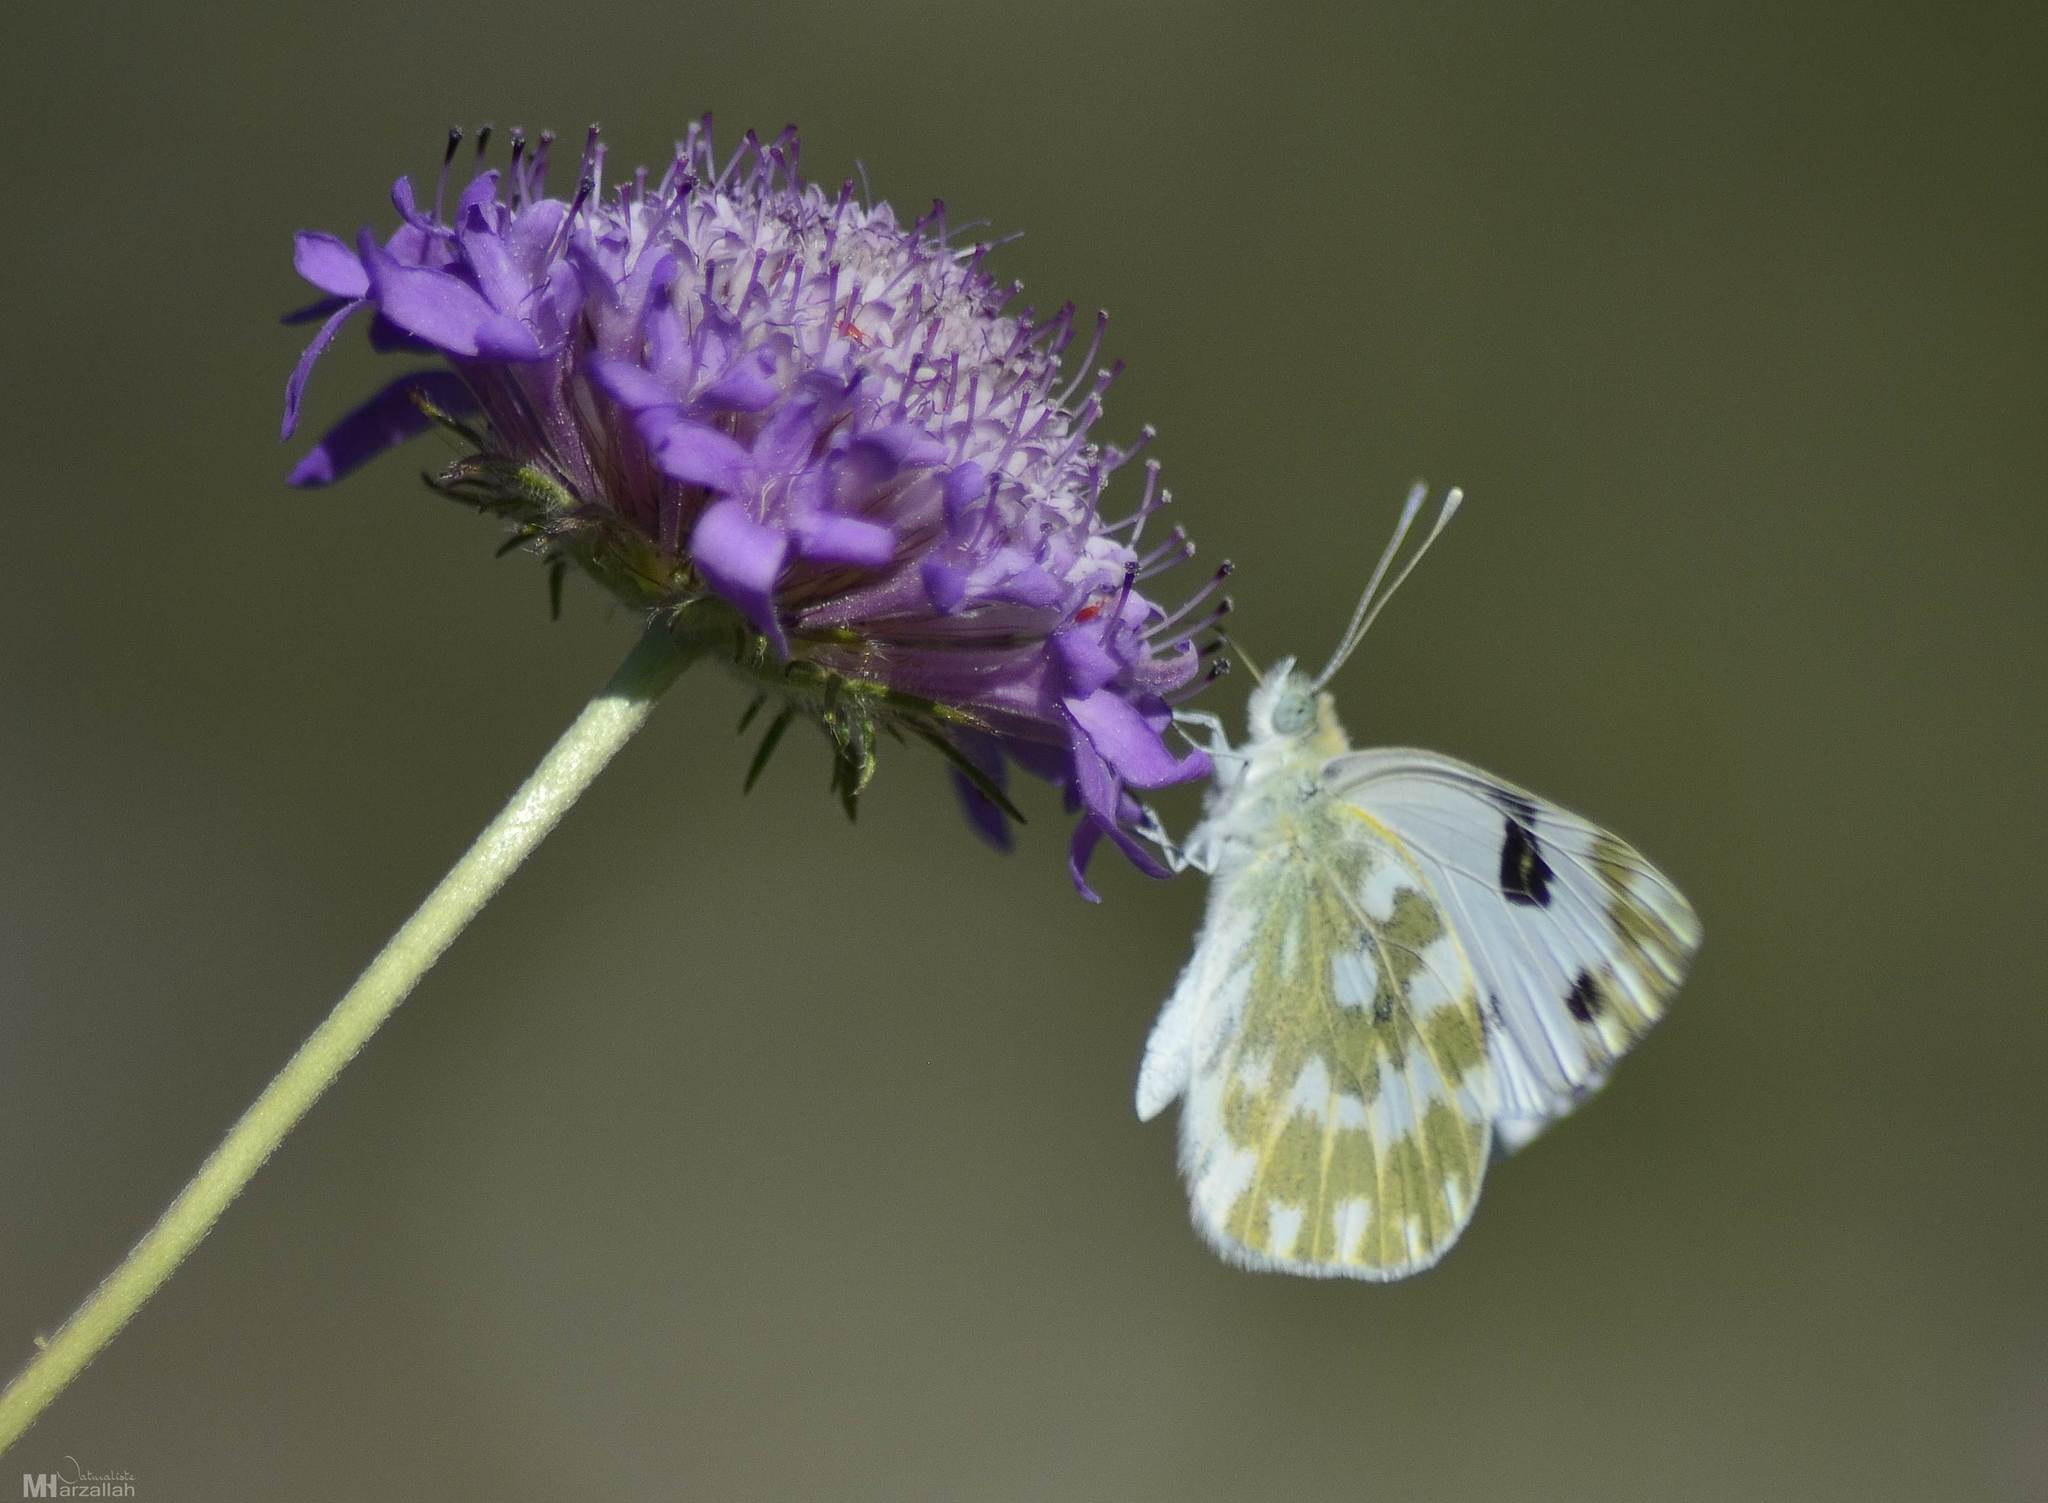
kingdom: Animalia
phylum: Arthropoda
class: Insecta
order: Lepidoptera
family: Pieridae
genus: Pontia
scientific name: Pontia daplidice
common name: Bath white
